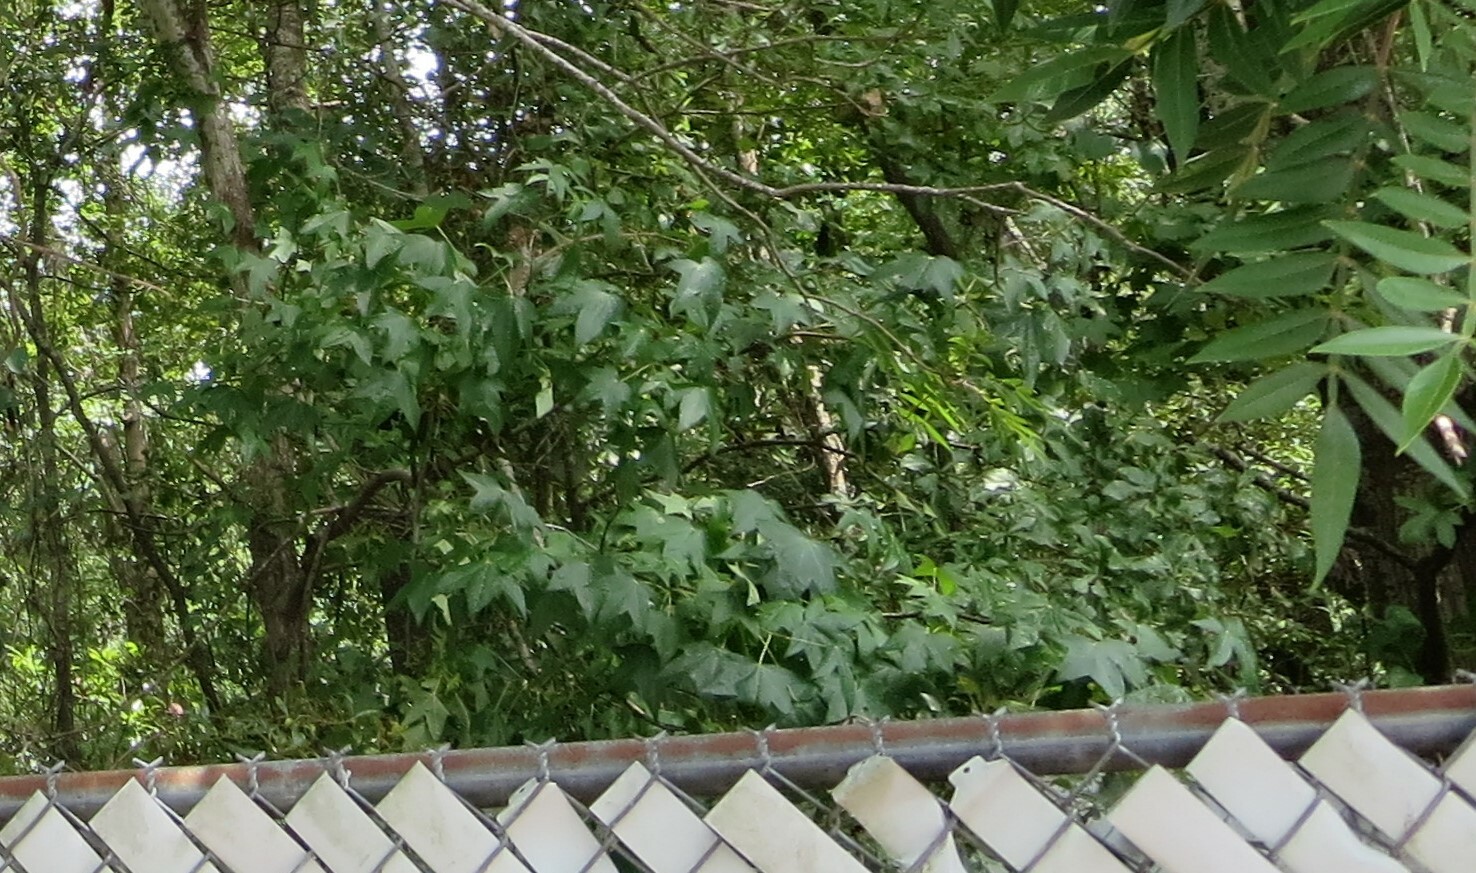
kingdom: Plantae
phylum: Tracheophyta
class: Magnoliopsida
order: Saxifragales
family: Altingiaceae
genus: Liquidambar
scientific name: Liquidambar styraciflua
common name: Sweet gum
